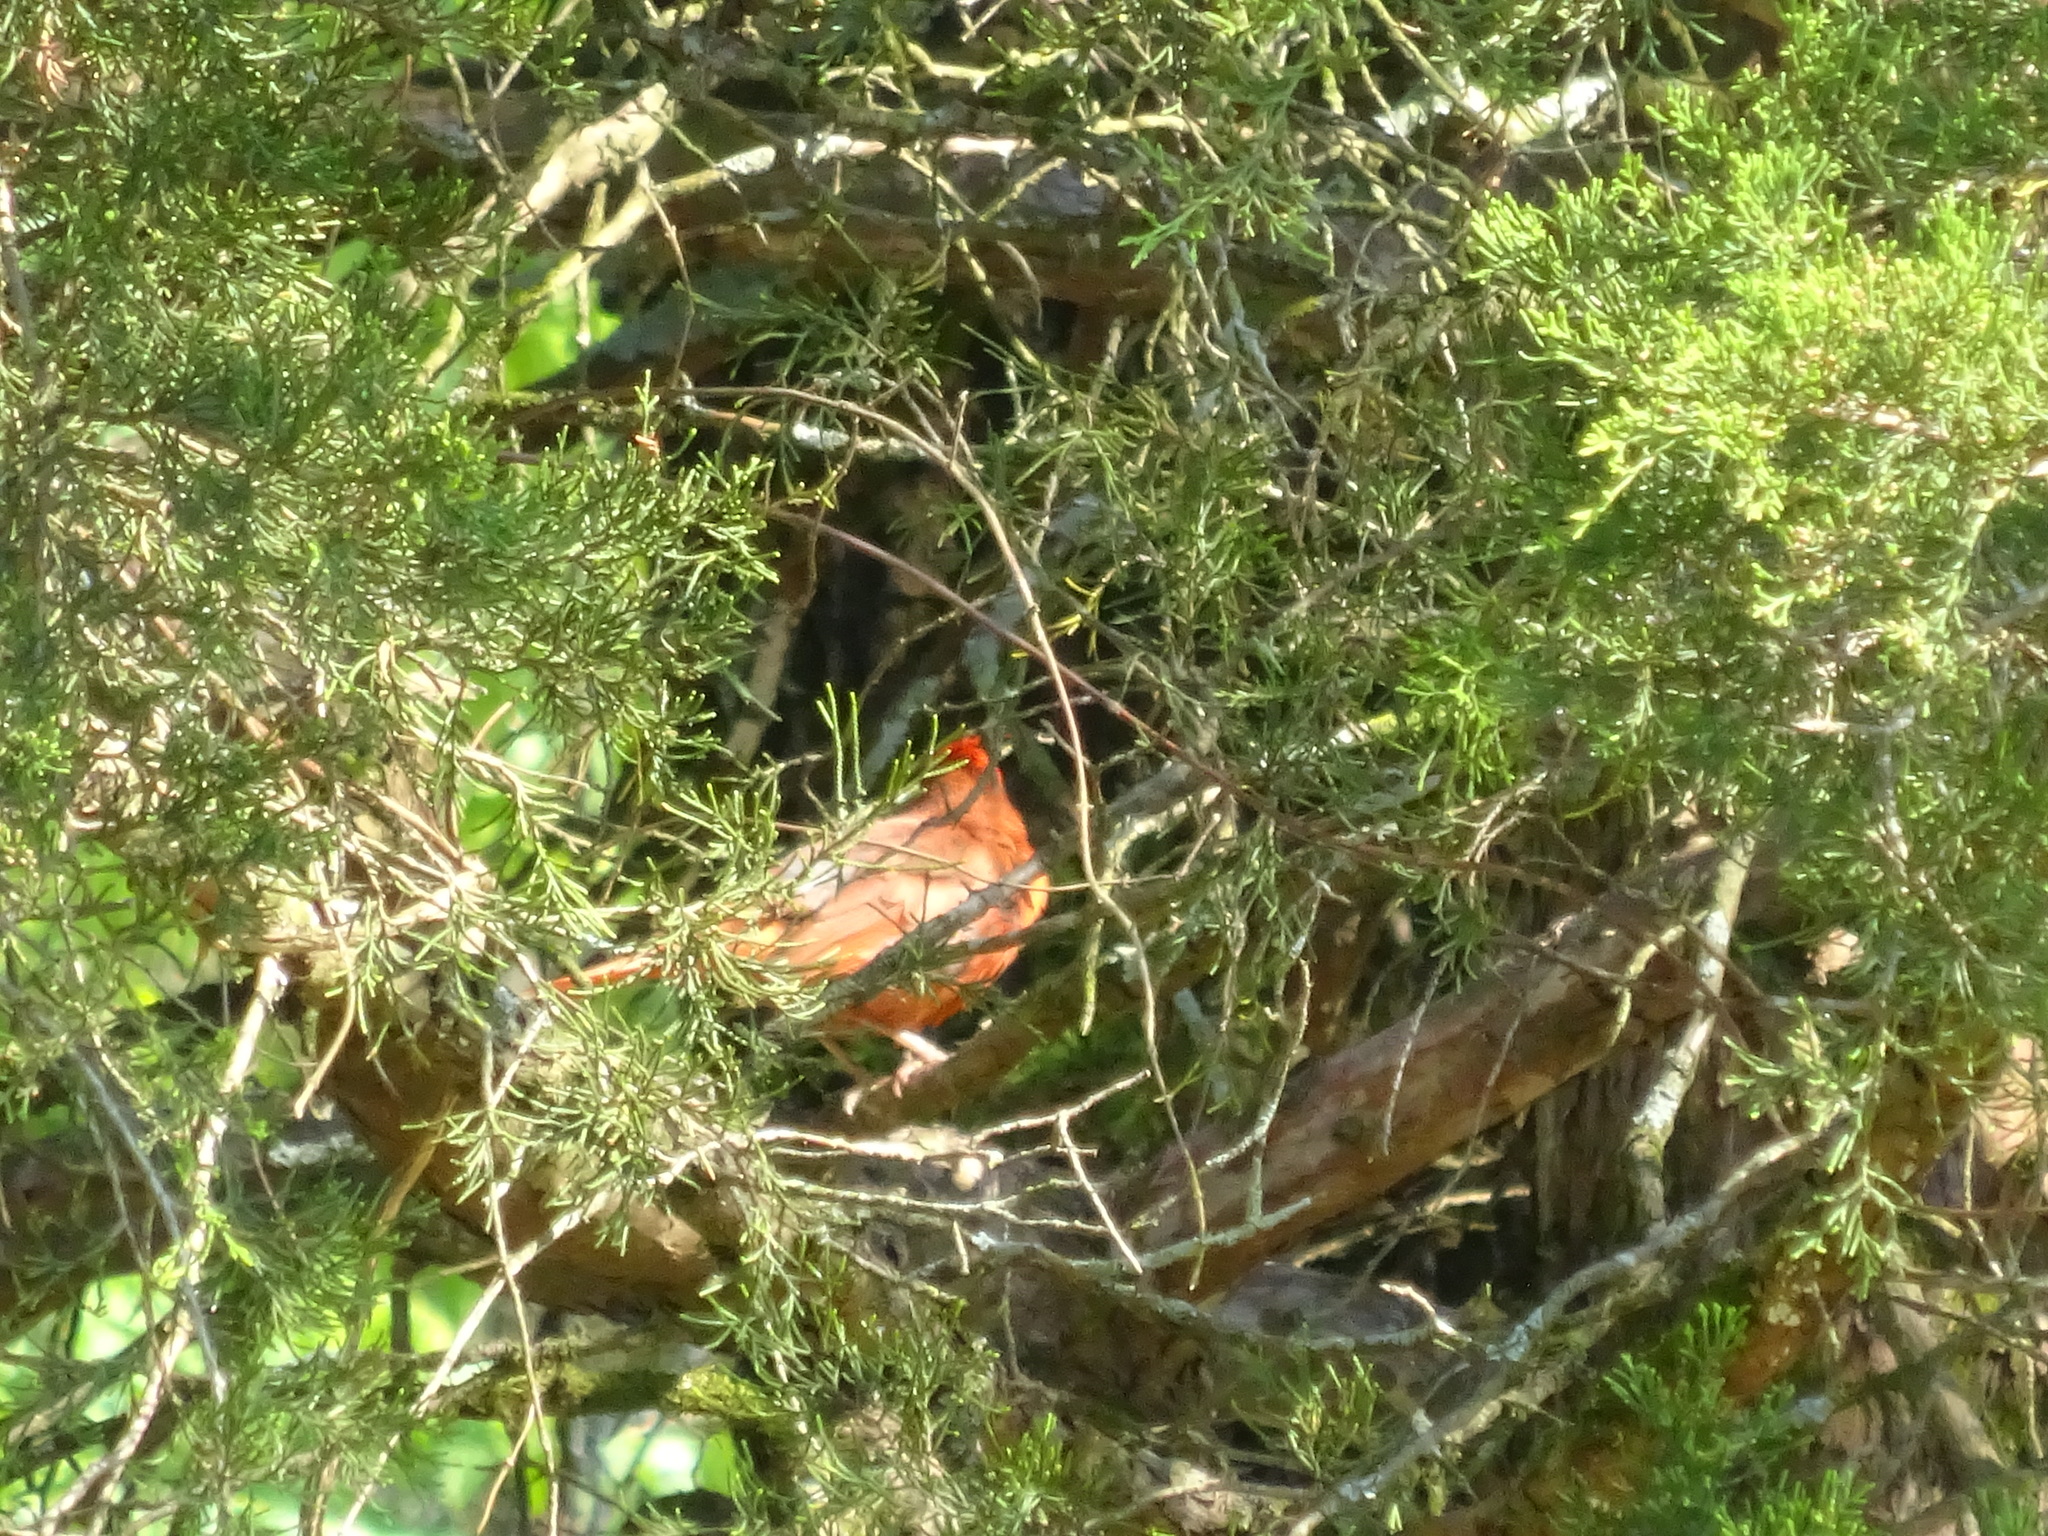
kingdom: Animalia
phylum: Chordata
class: Aves
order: Passeriformes
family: Cardinalidae
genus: Cardinalis
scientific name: Cardinalis cardinalis
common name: Northern cardinal
